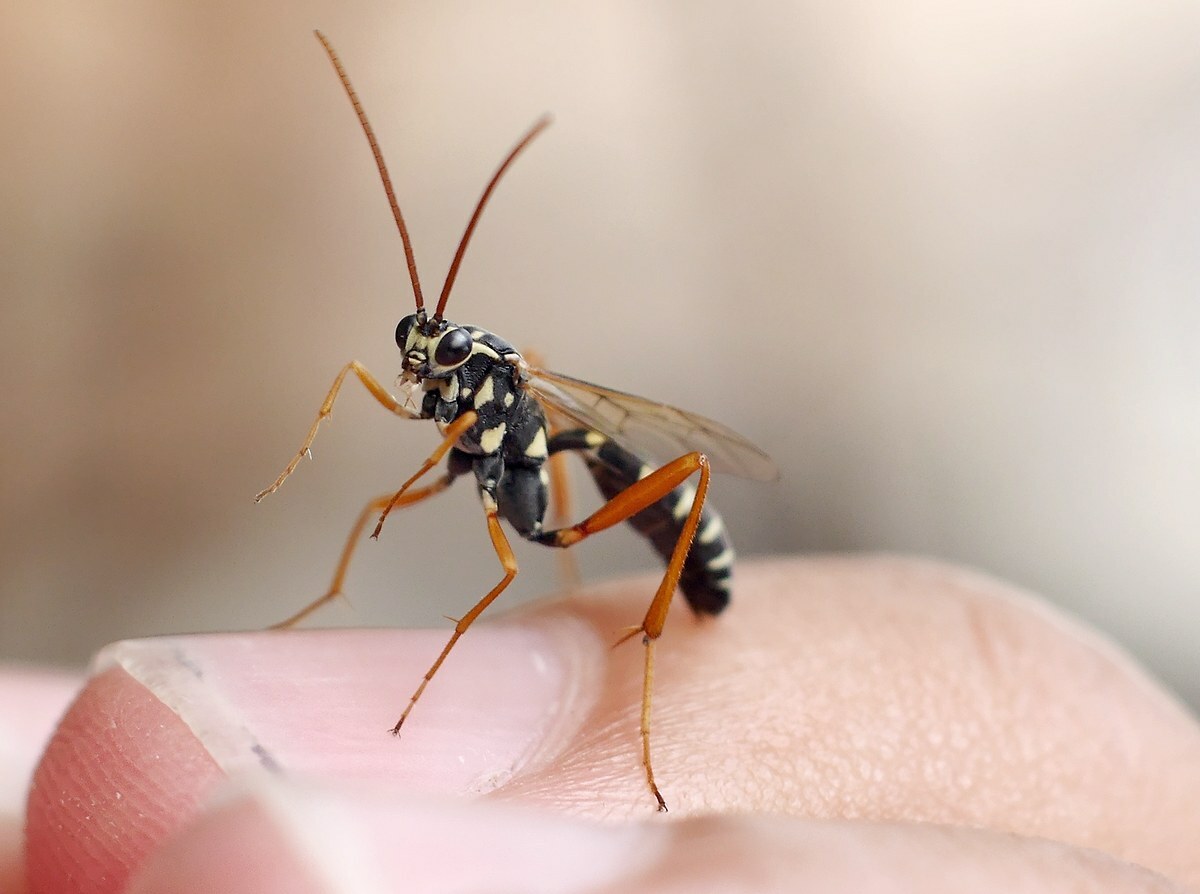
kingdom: Animalia
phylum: Arthropoda
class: Insecta
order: Hymenoptera
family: Ichneumonidae
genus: Latibulus
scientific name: Latibulus argiolus
